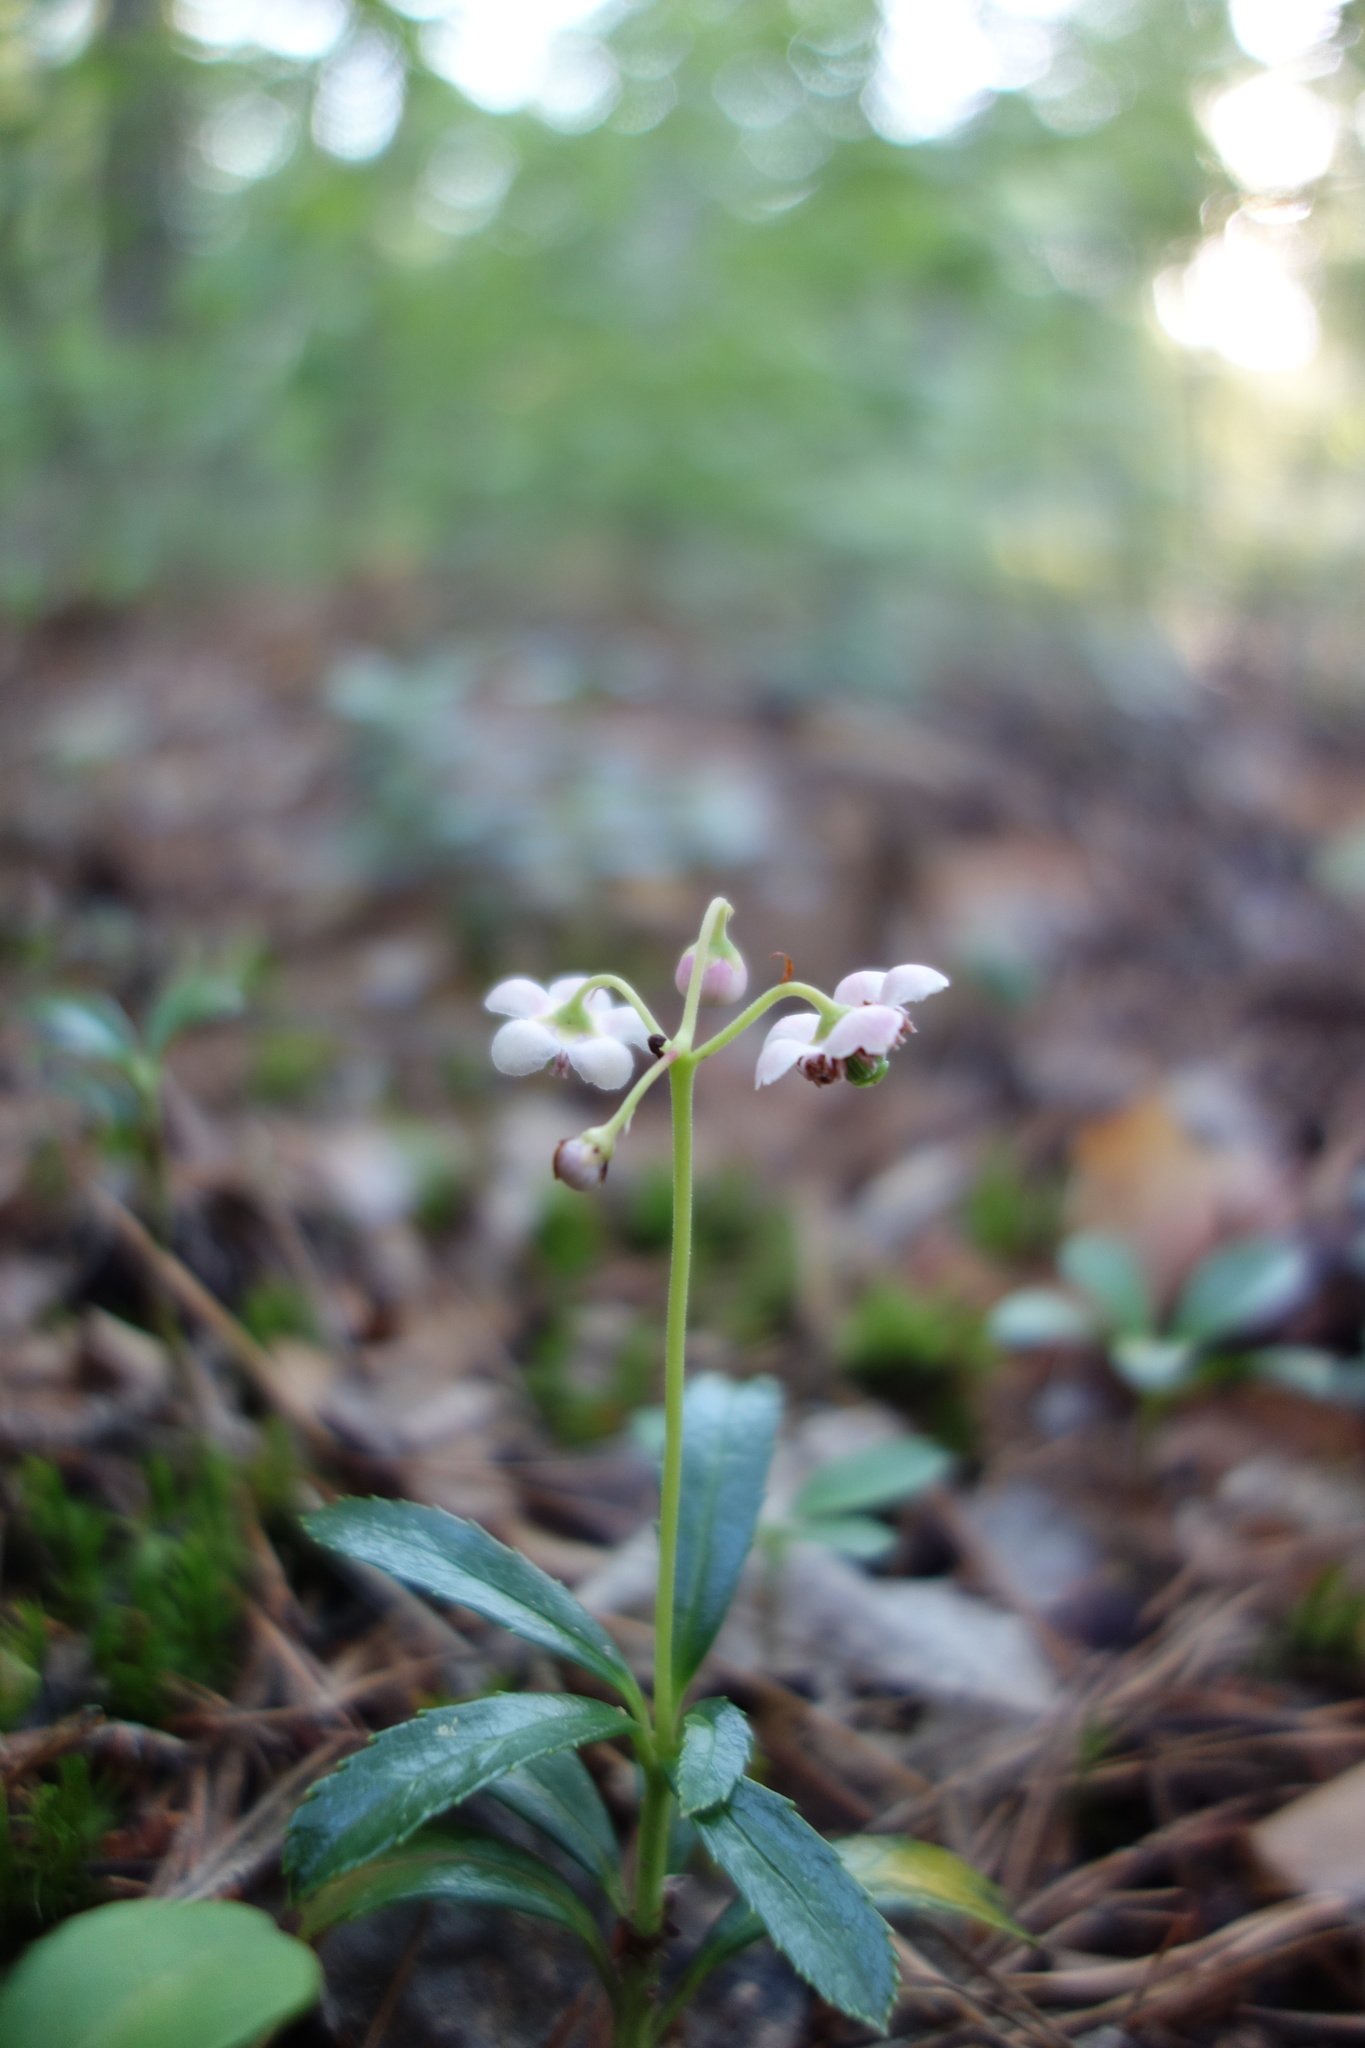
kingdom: Plantae
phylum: Tracheophyta
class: Magnoliopsida
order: Ericales
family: Ericaceae
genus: Chimaphila
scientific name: Chimaphila umbellata
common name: Pipsissewa
